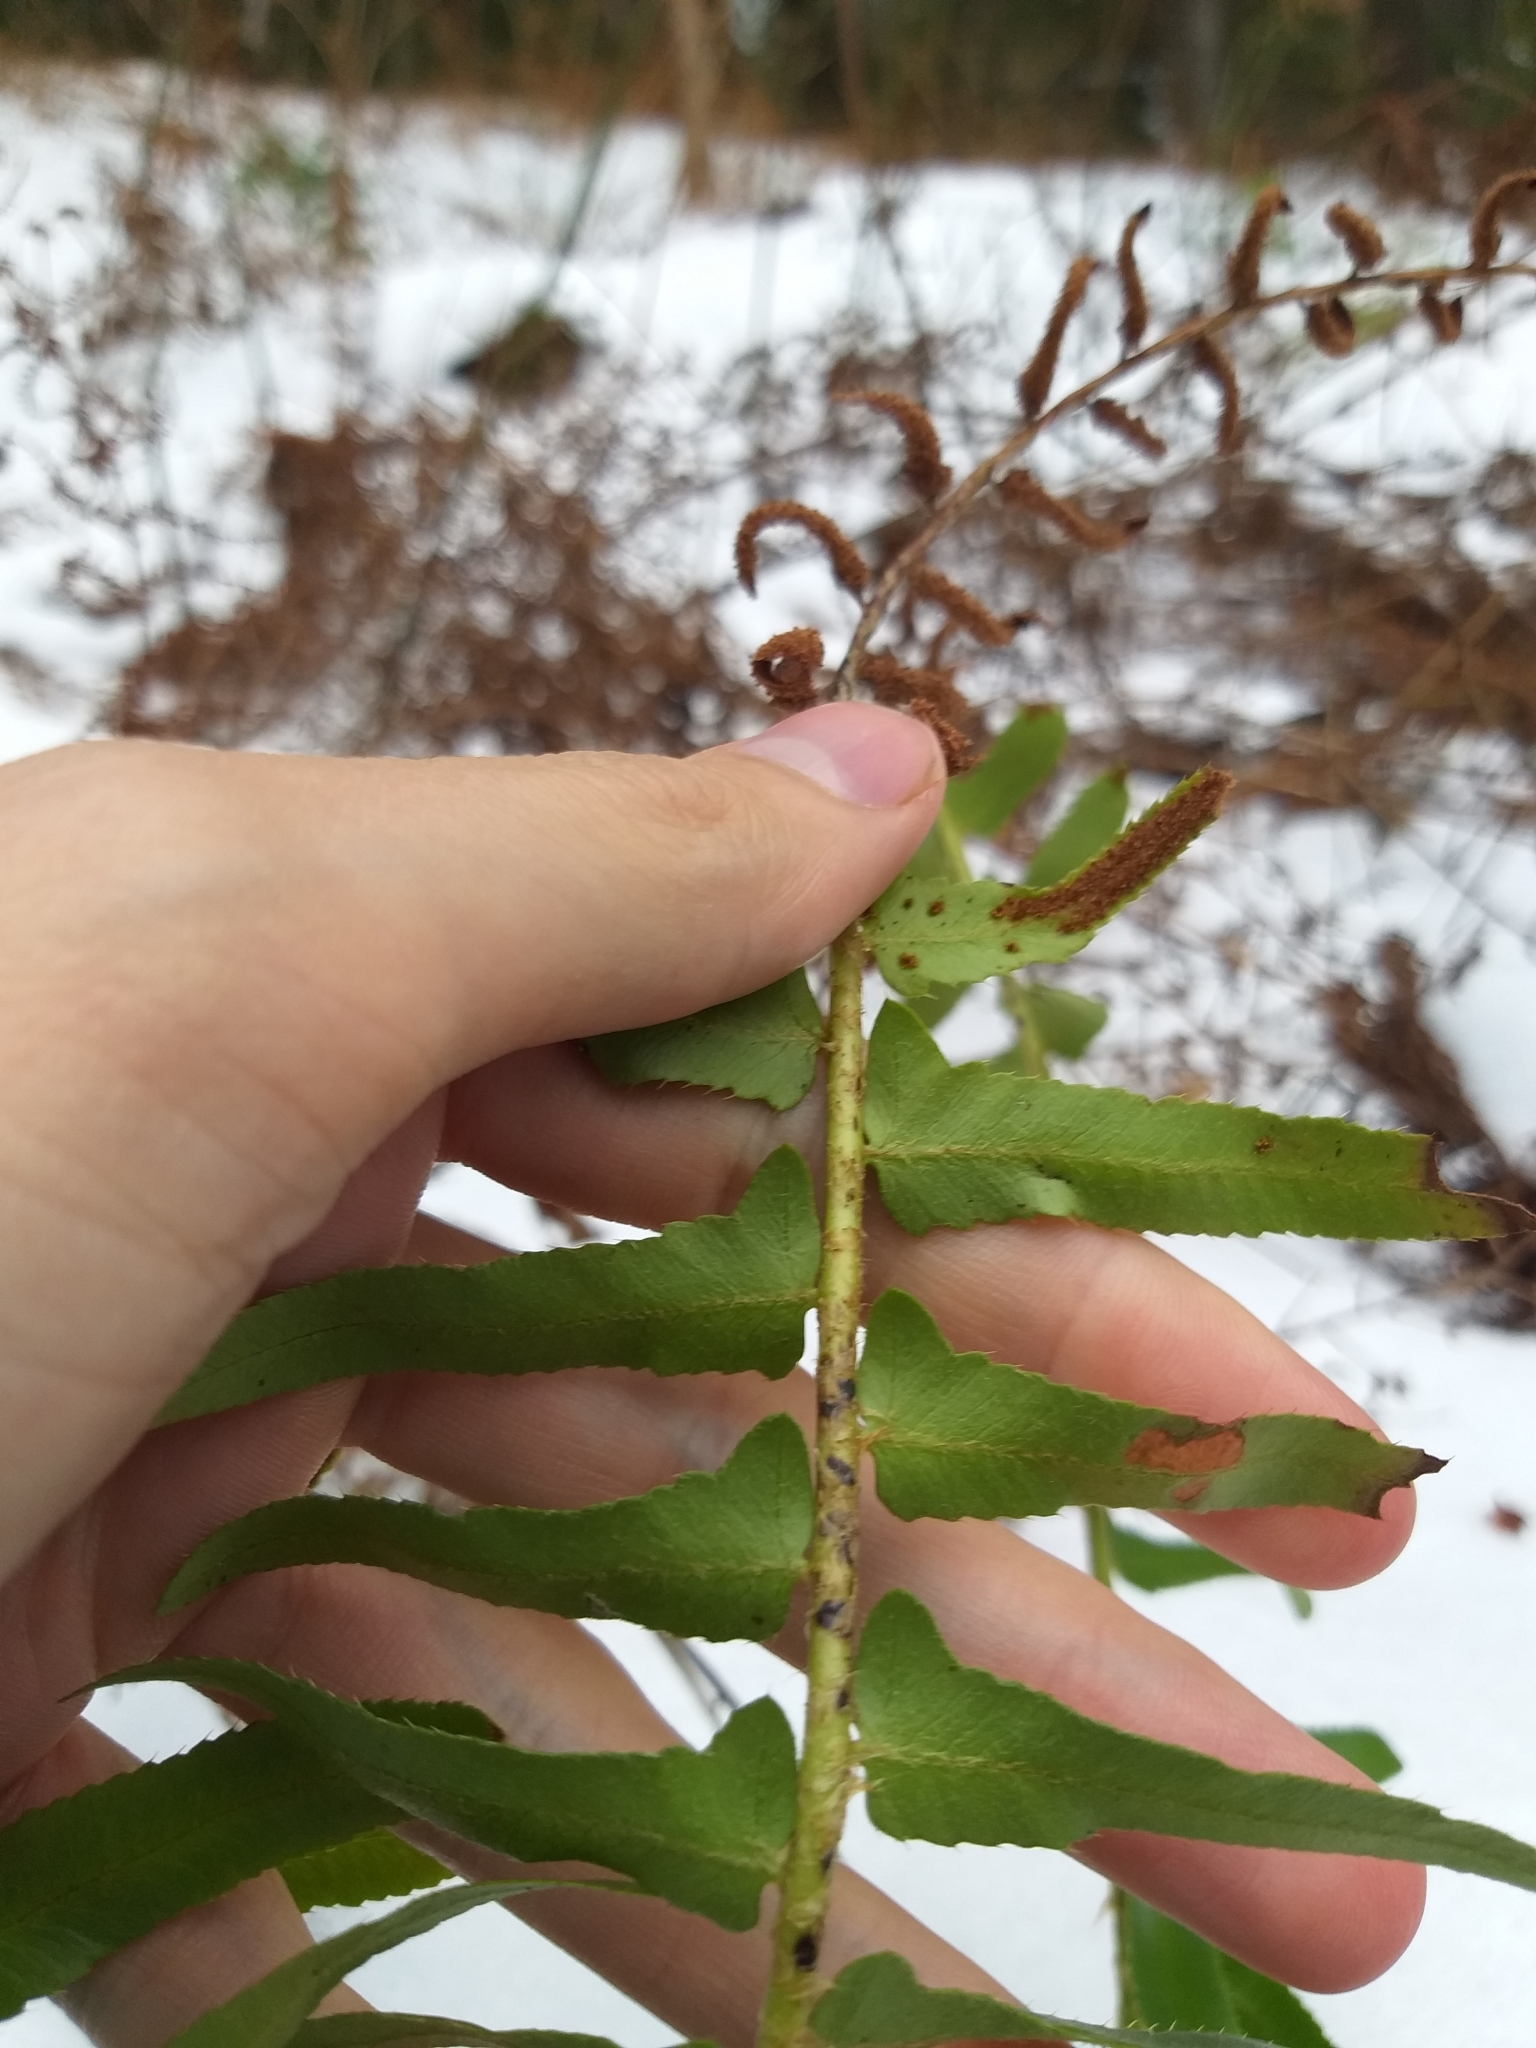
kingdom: Plantae
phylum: Tracheophyta
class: Polypodiopsida
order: Polypodiales
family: Dryopteridaceae
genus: Polystichum
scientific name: Polystichum acrostichoides
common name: Christmas fern
